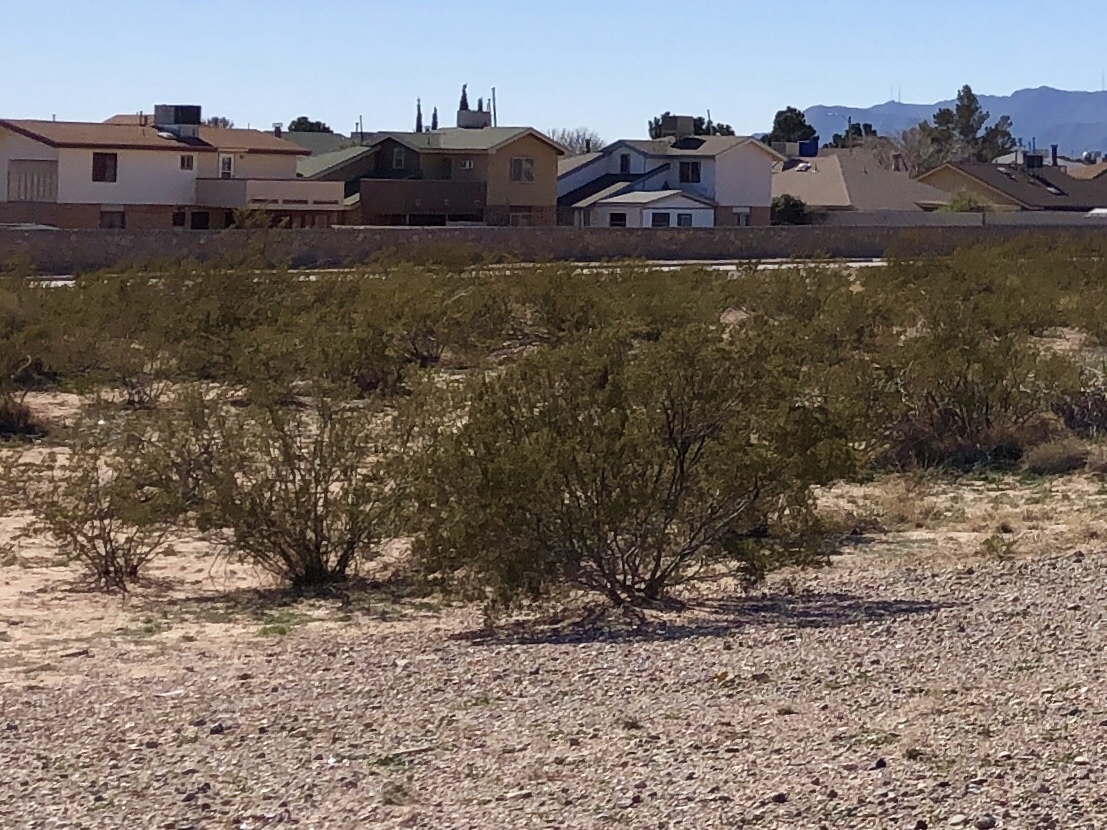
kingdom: Plantae
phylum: Tracheophyta
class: Magnoliopsida
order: Zygophyllales
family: Zygophyllaceae
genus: Larrea
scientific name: Larrea tridentata
